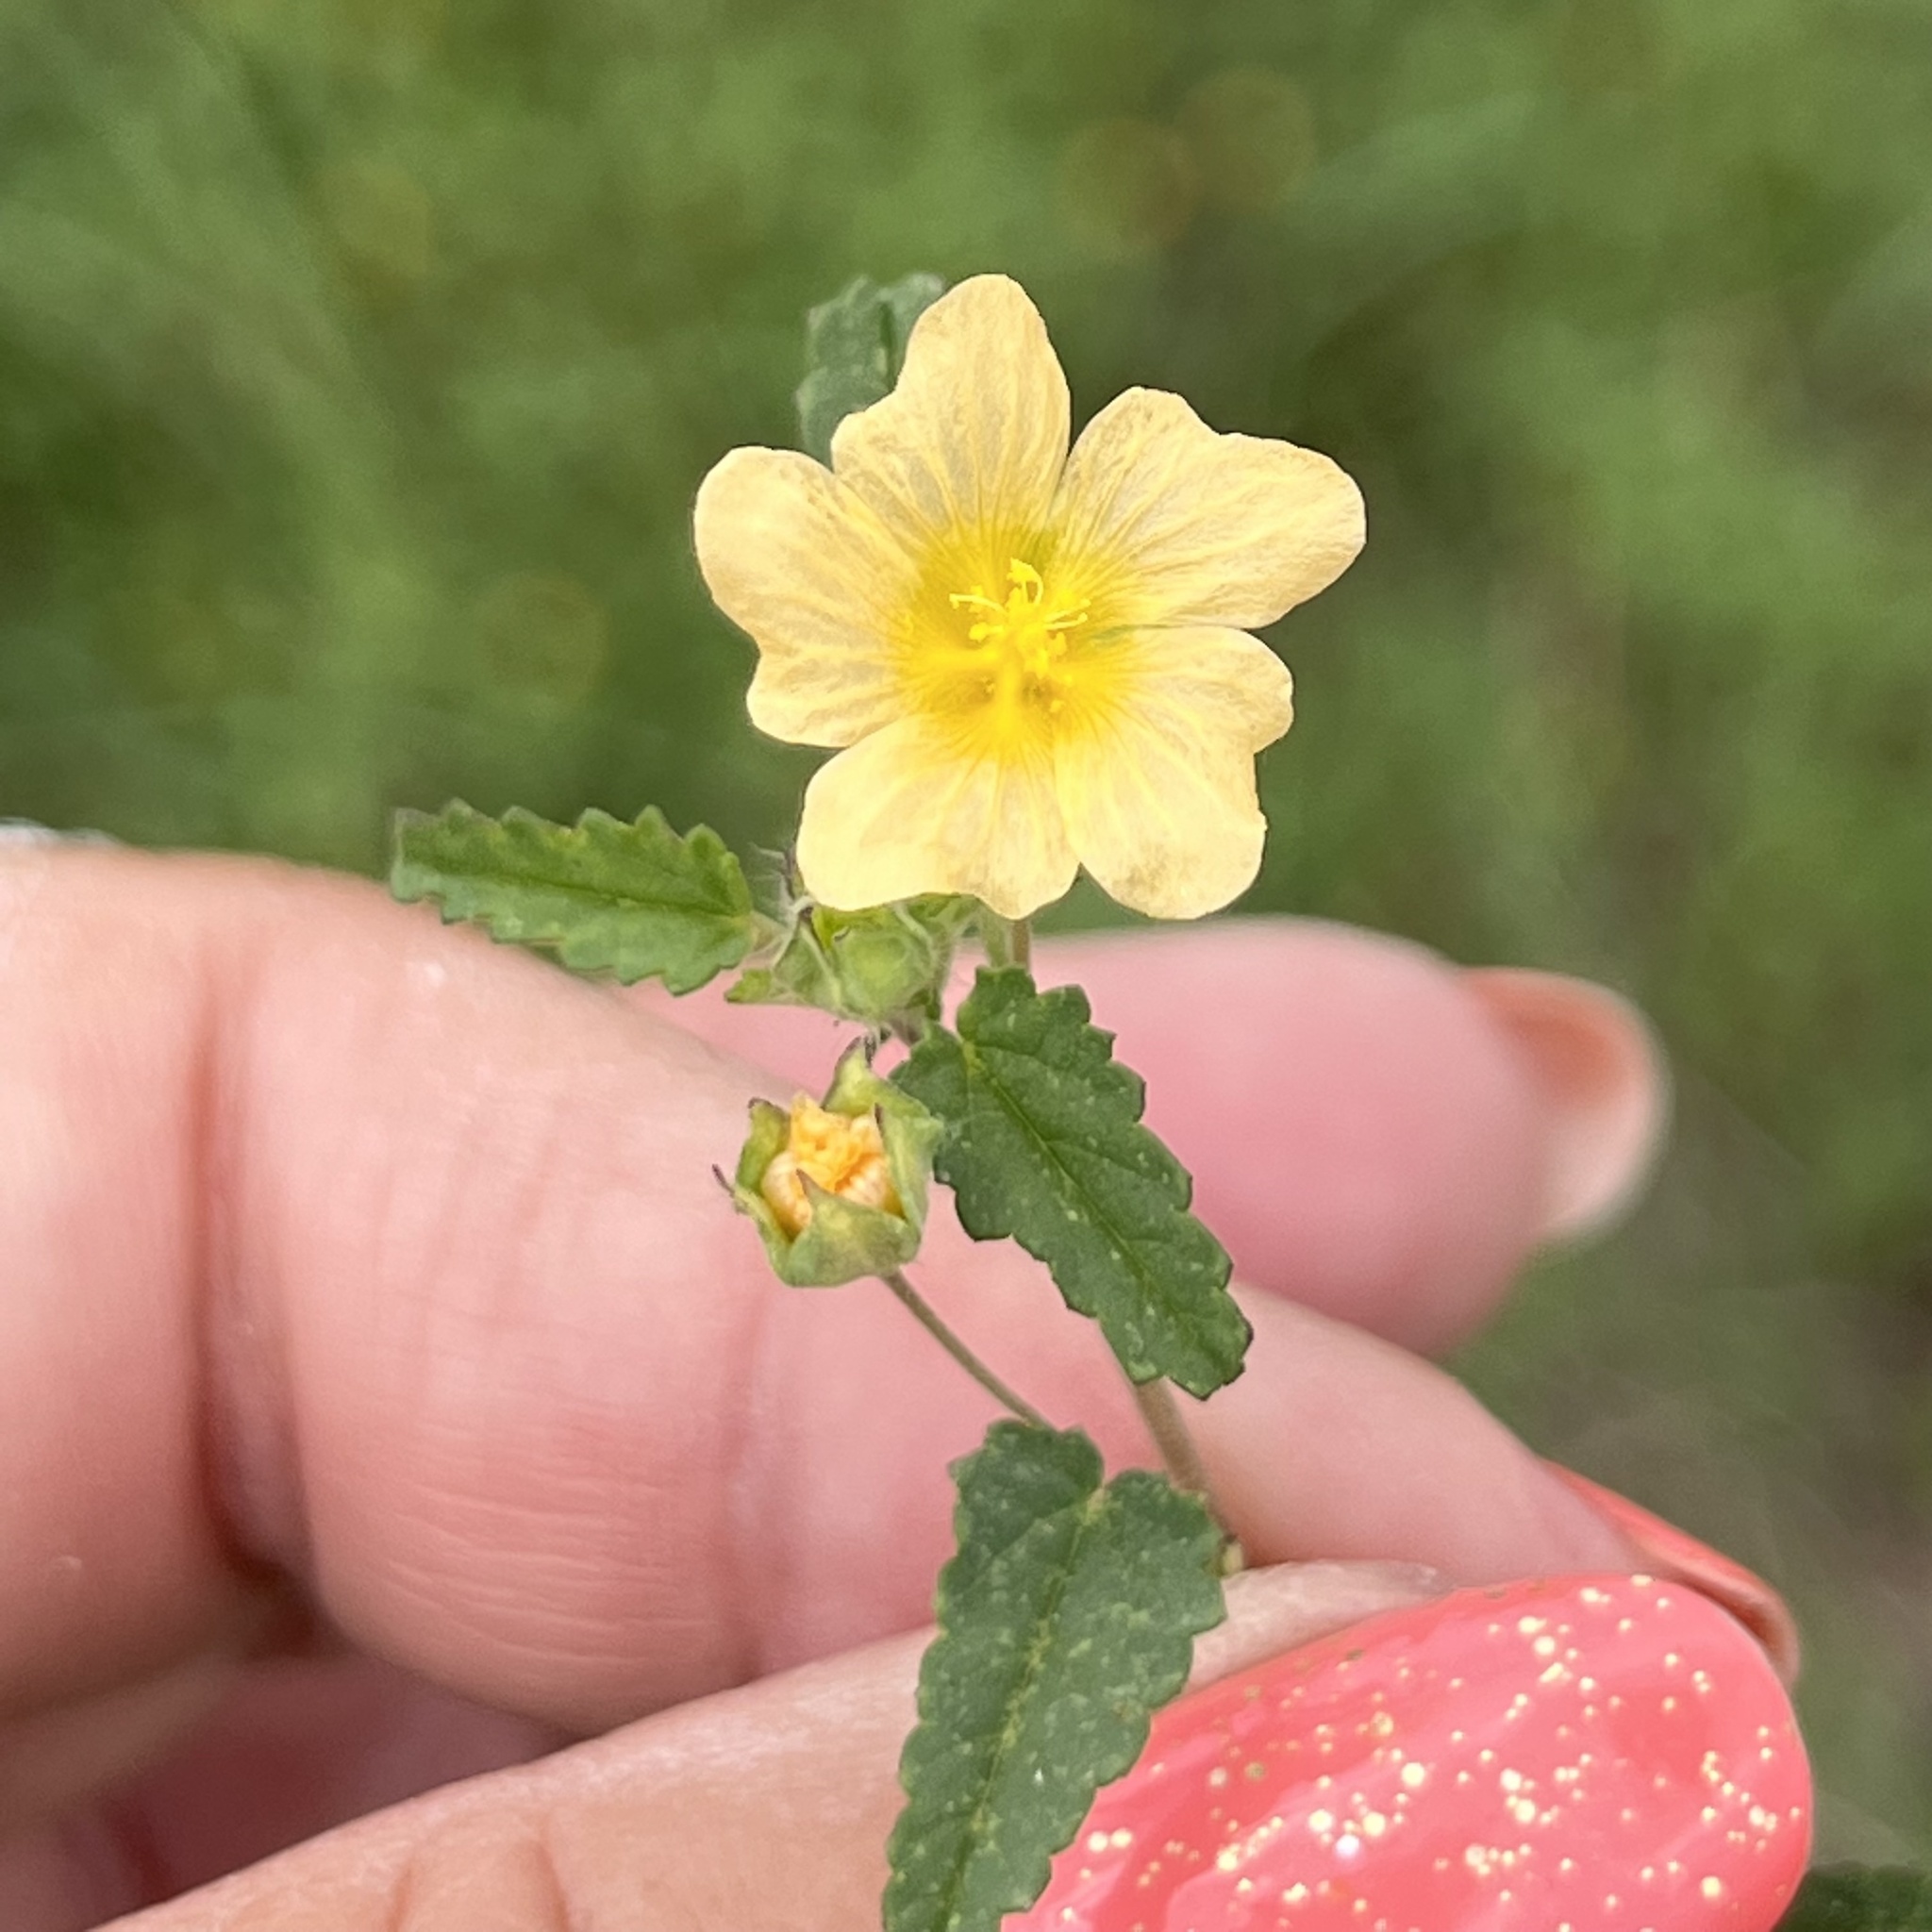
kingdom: Plantae
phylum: Tracheophyta
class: Magnoliopsida
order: Malvales
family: Malvaceae
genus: Sida
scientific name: Sida abutilifolia
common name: Spreading fanpetals
